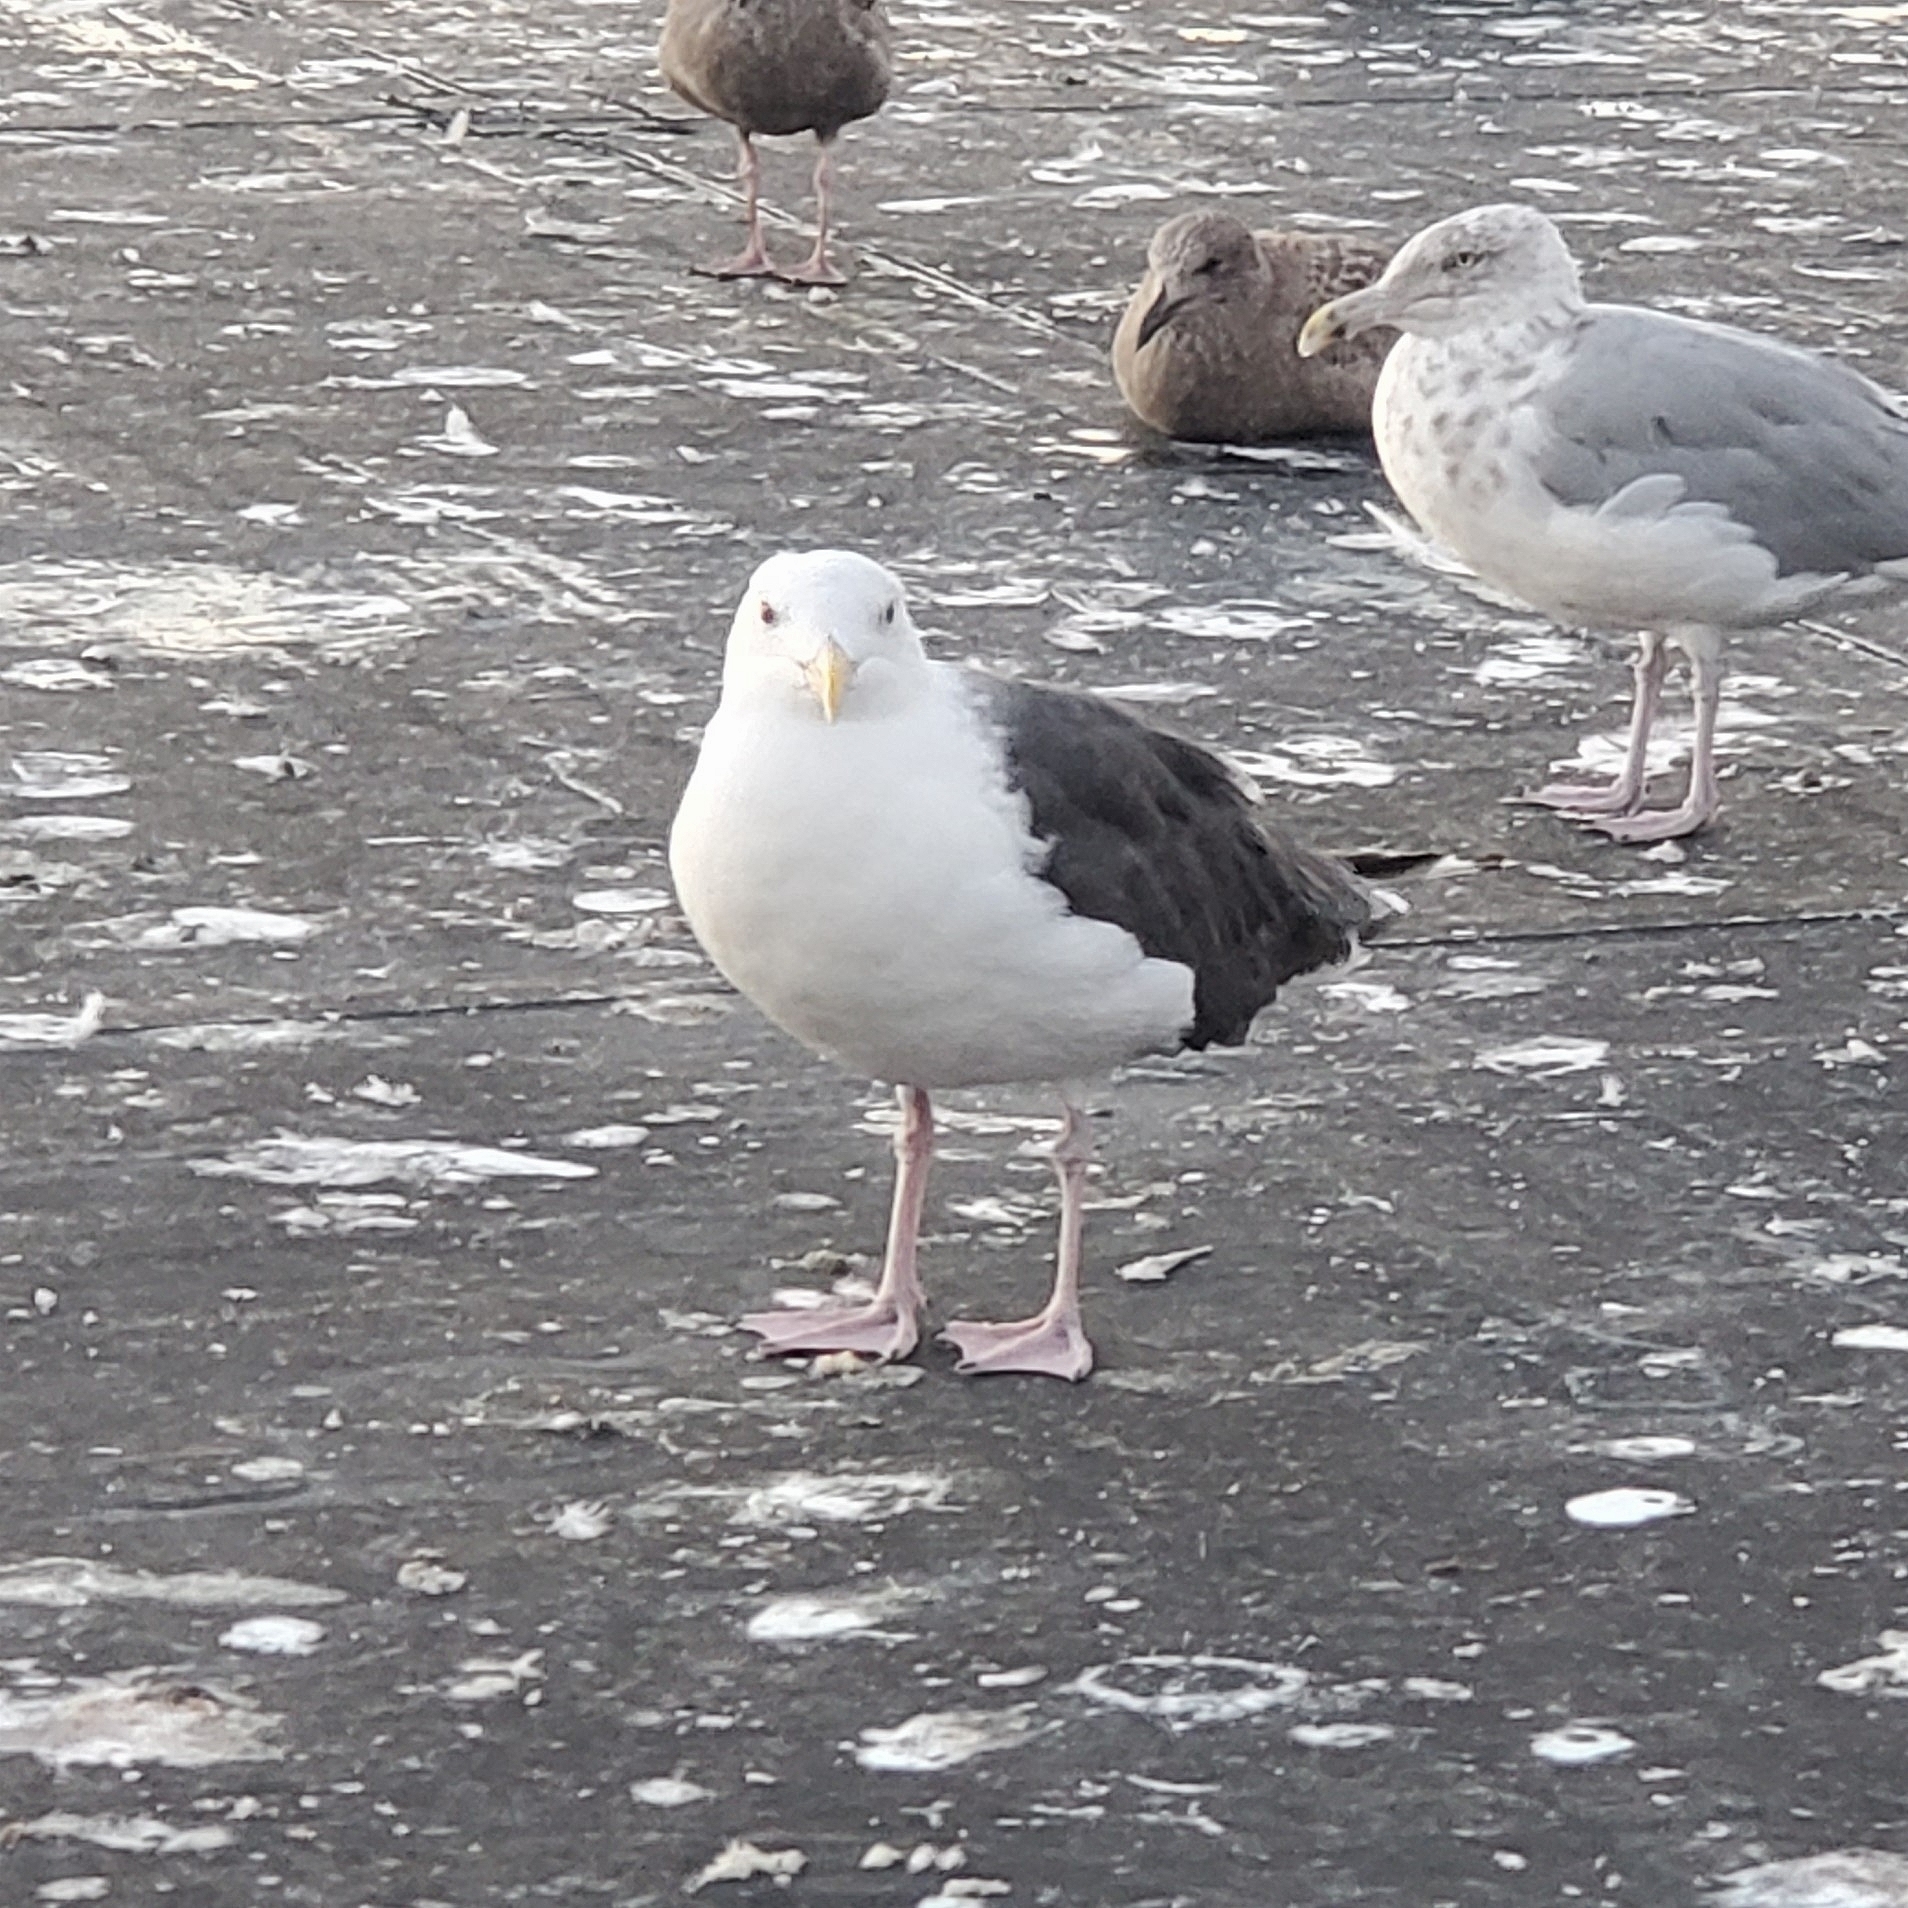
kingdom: Animalia
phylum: Chordata
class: Aves
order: Charadriiformes
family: Laridae
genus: Larus
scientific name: Larus marinus
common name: Great black-backed gull
